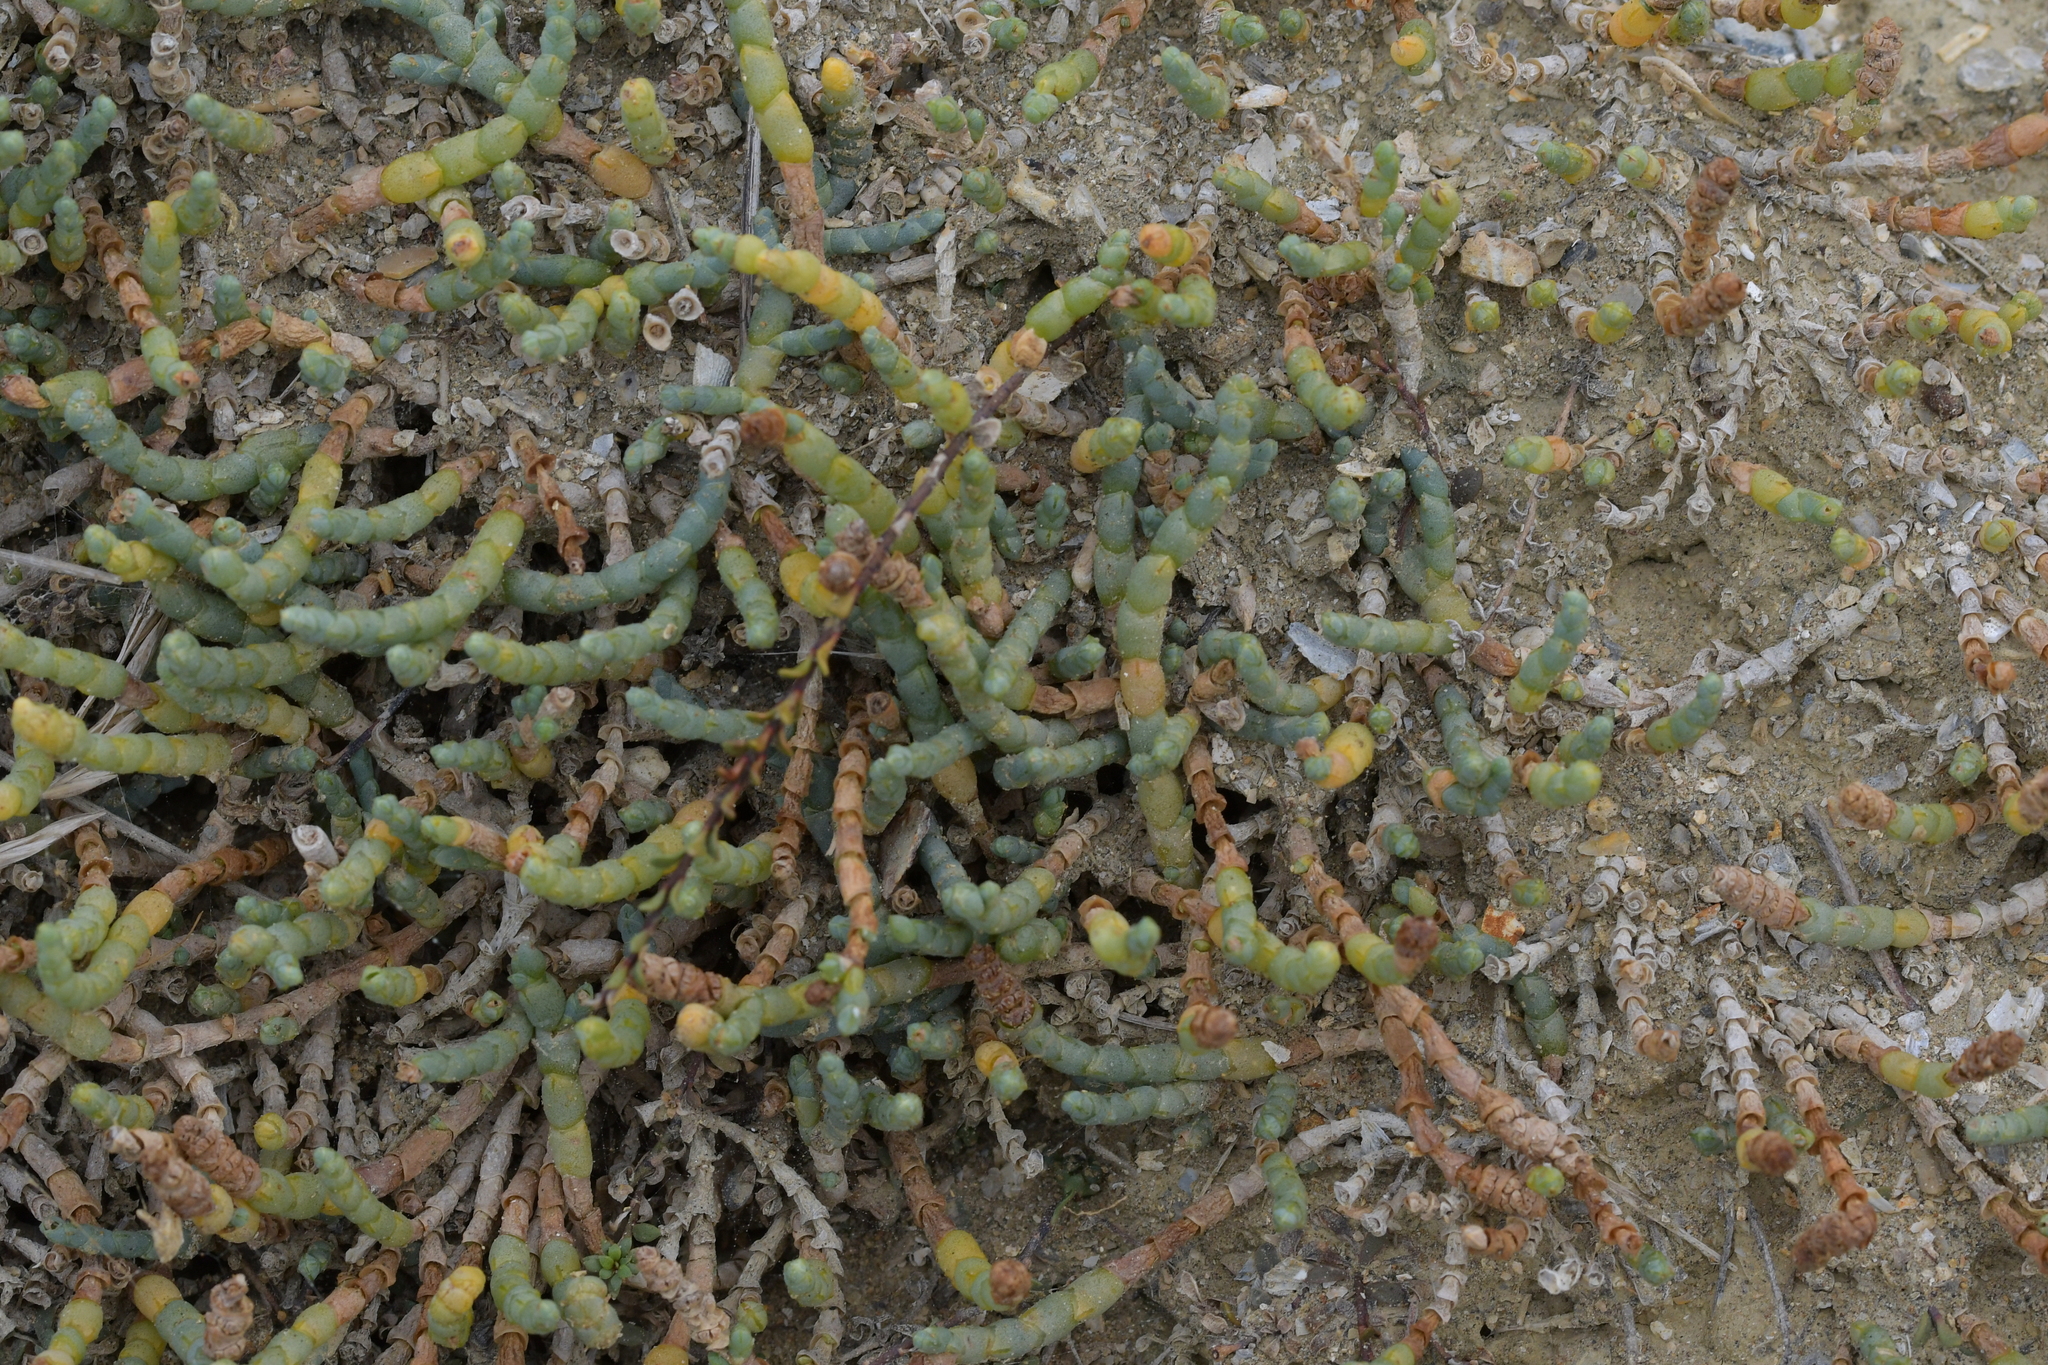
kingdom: Plantae
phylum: Tracheophyta
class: Magnoliopsida
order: Caryophyllales
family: Amaranthaceae
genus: Salicornia
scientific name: Salicornia quinqueflora
